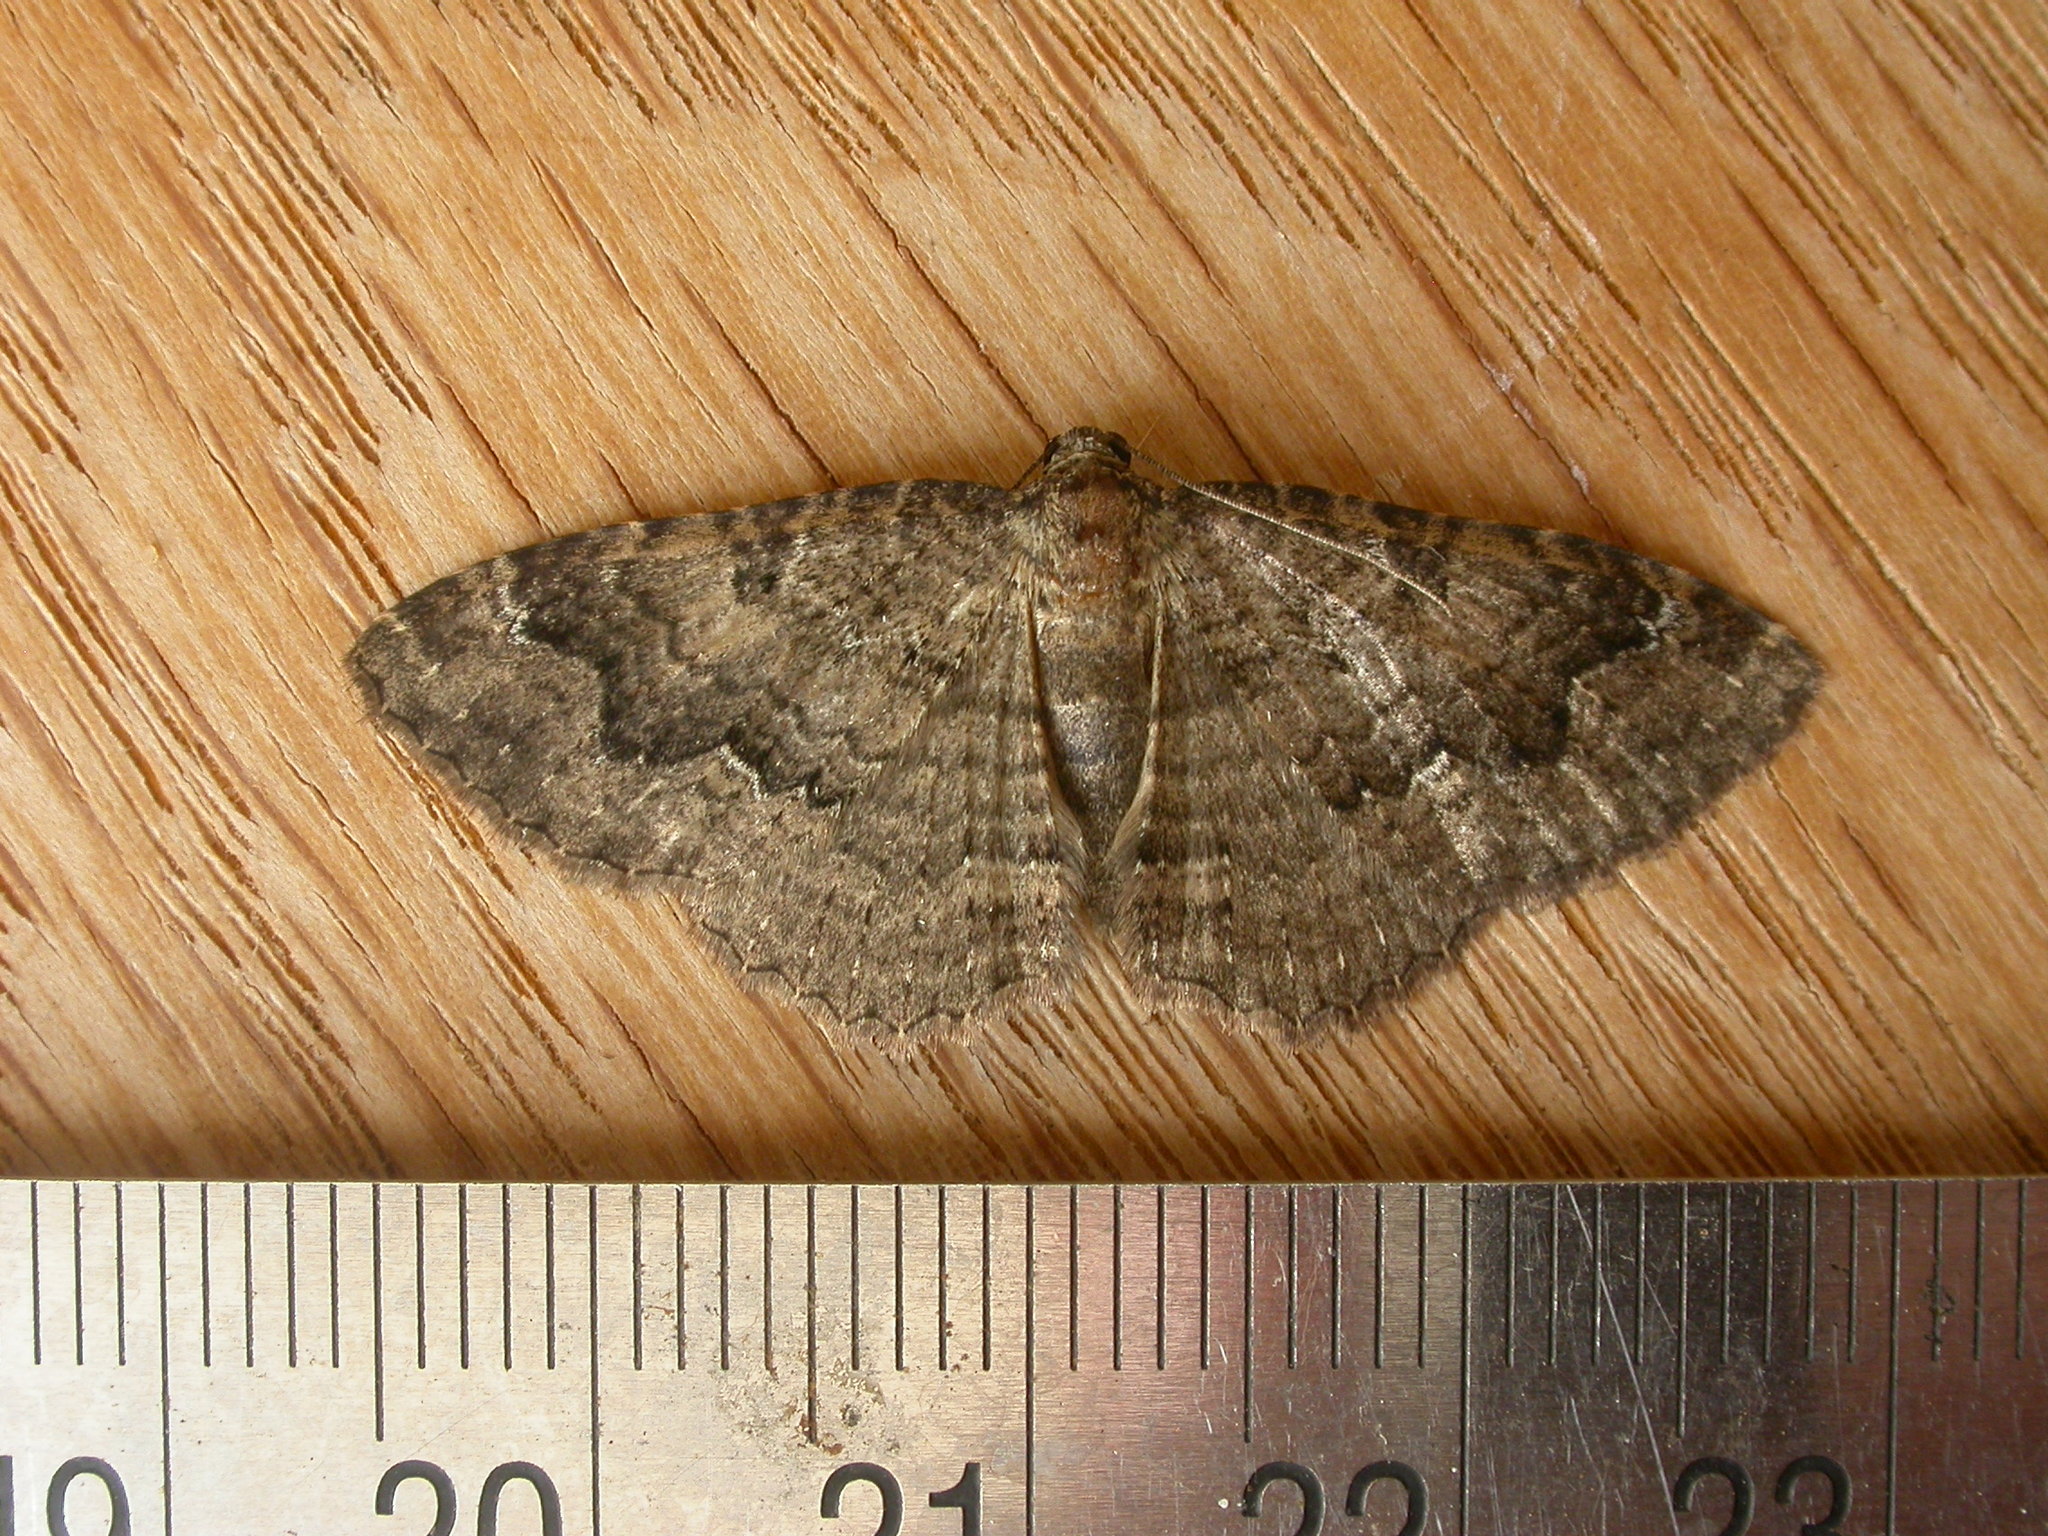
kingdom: Animalia
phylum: Arthropoda
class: Insecta
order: Lepidoptera
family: Geometridae
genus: Visiana
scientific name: Visiana brujata
